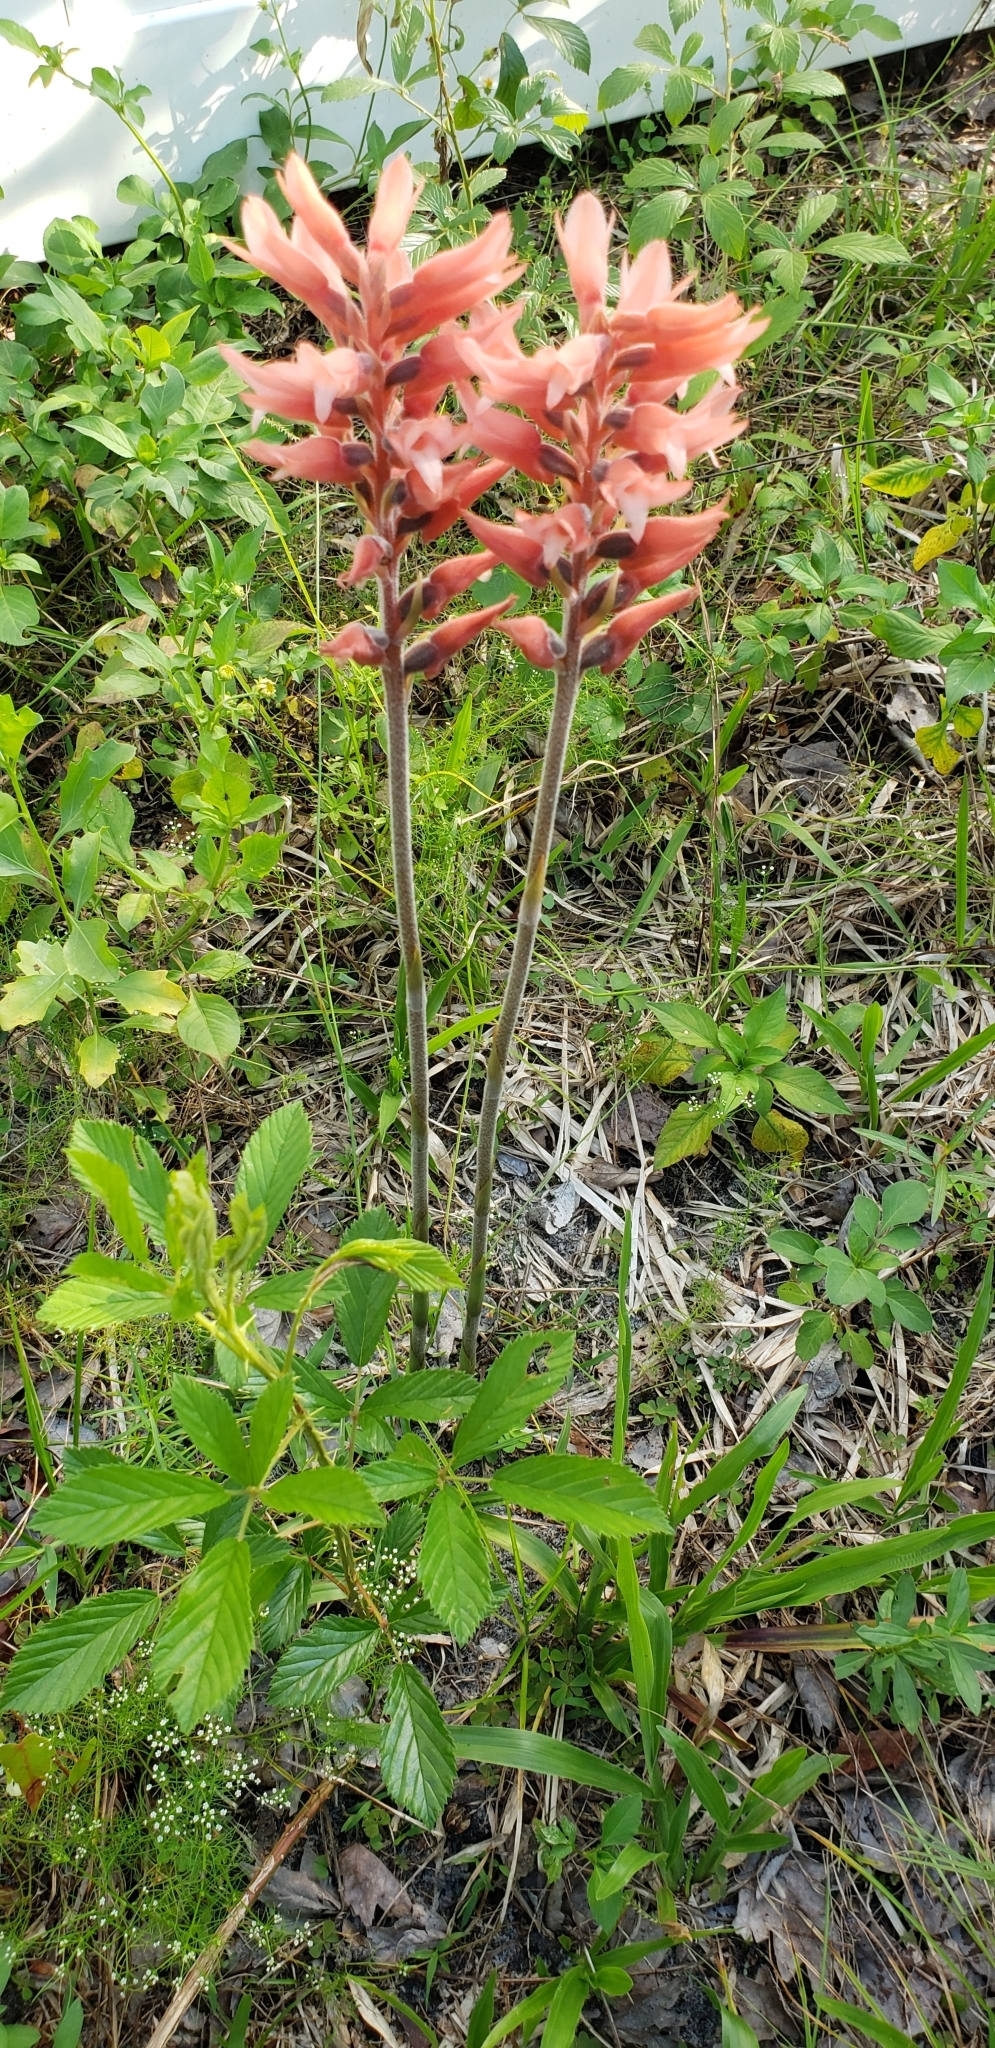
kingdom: Plantae
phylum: Tracheophyta
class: Liliopsida
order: Asparagales
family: Orchidaceae
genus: Sacoila
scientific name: Sacoila lanceolata
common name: Leafless beaked ladiestresses
